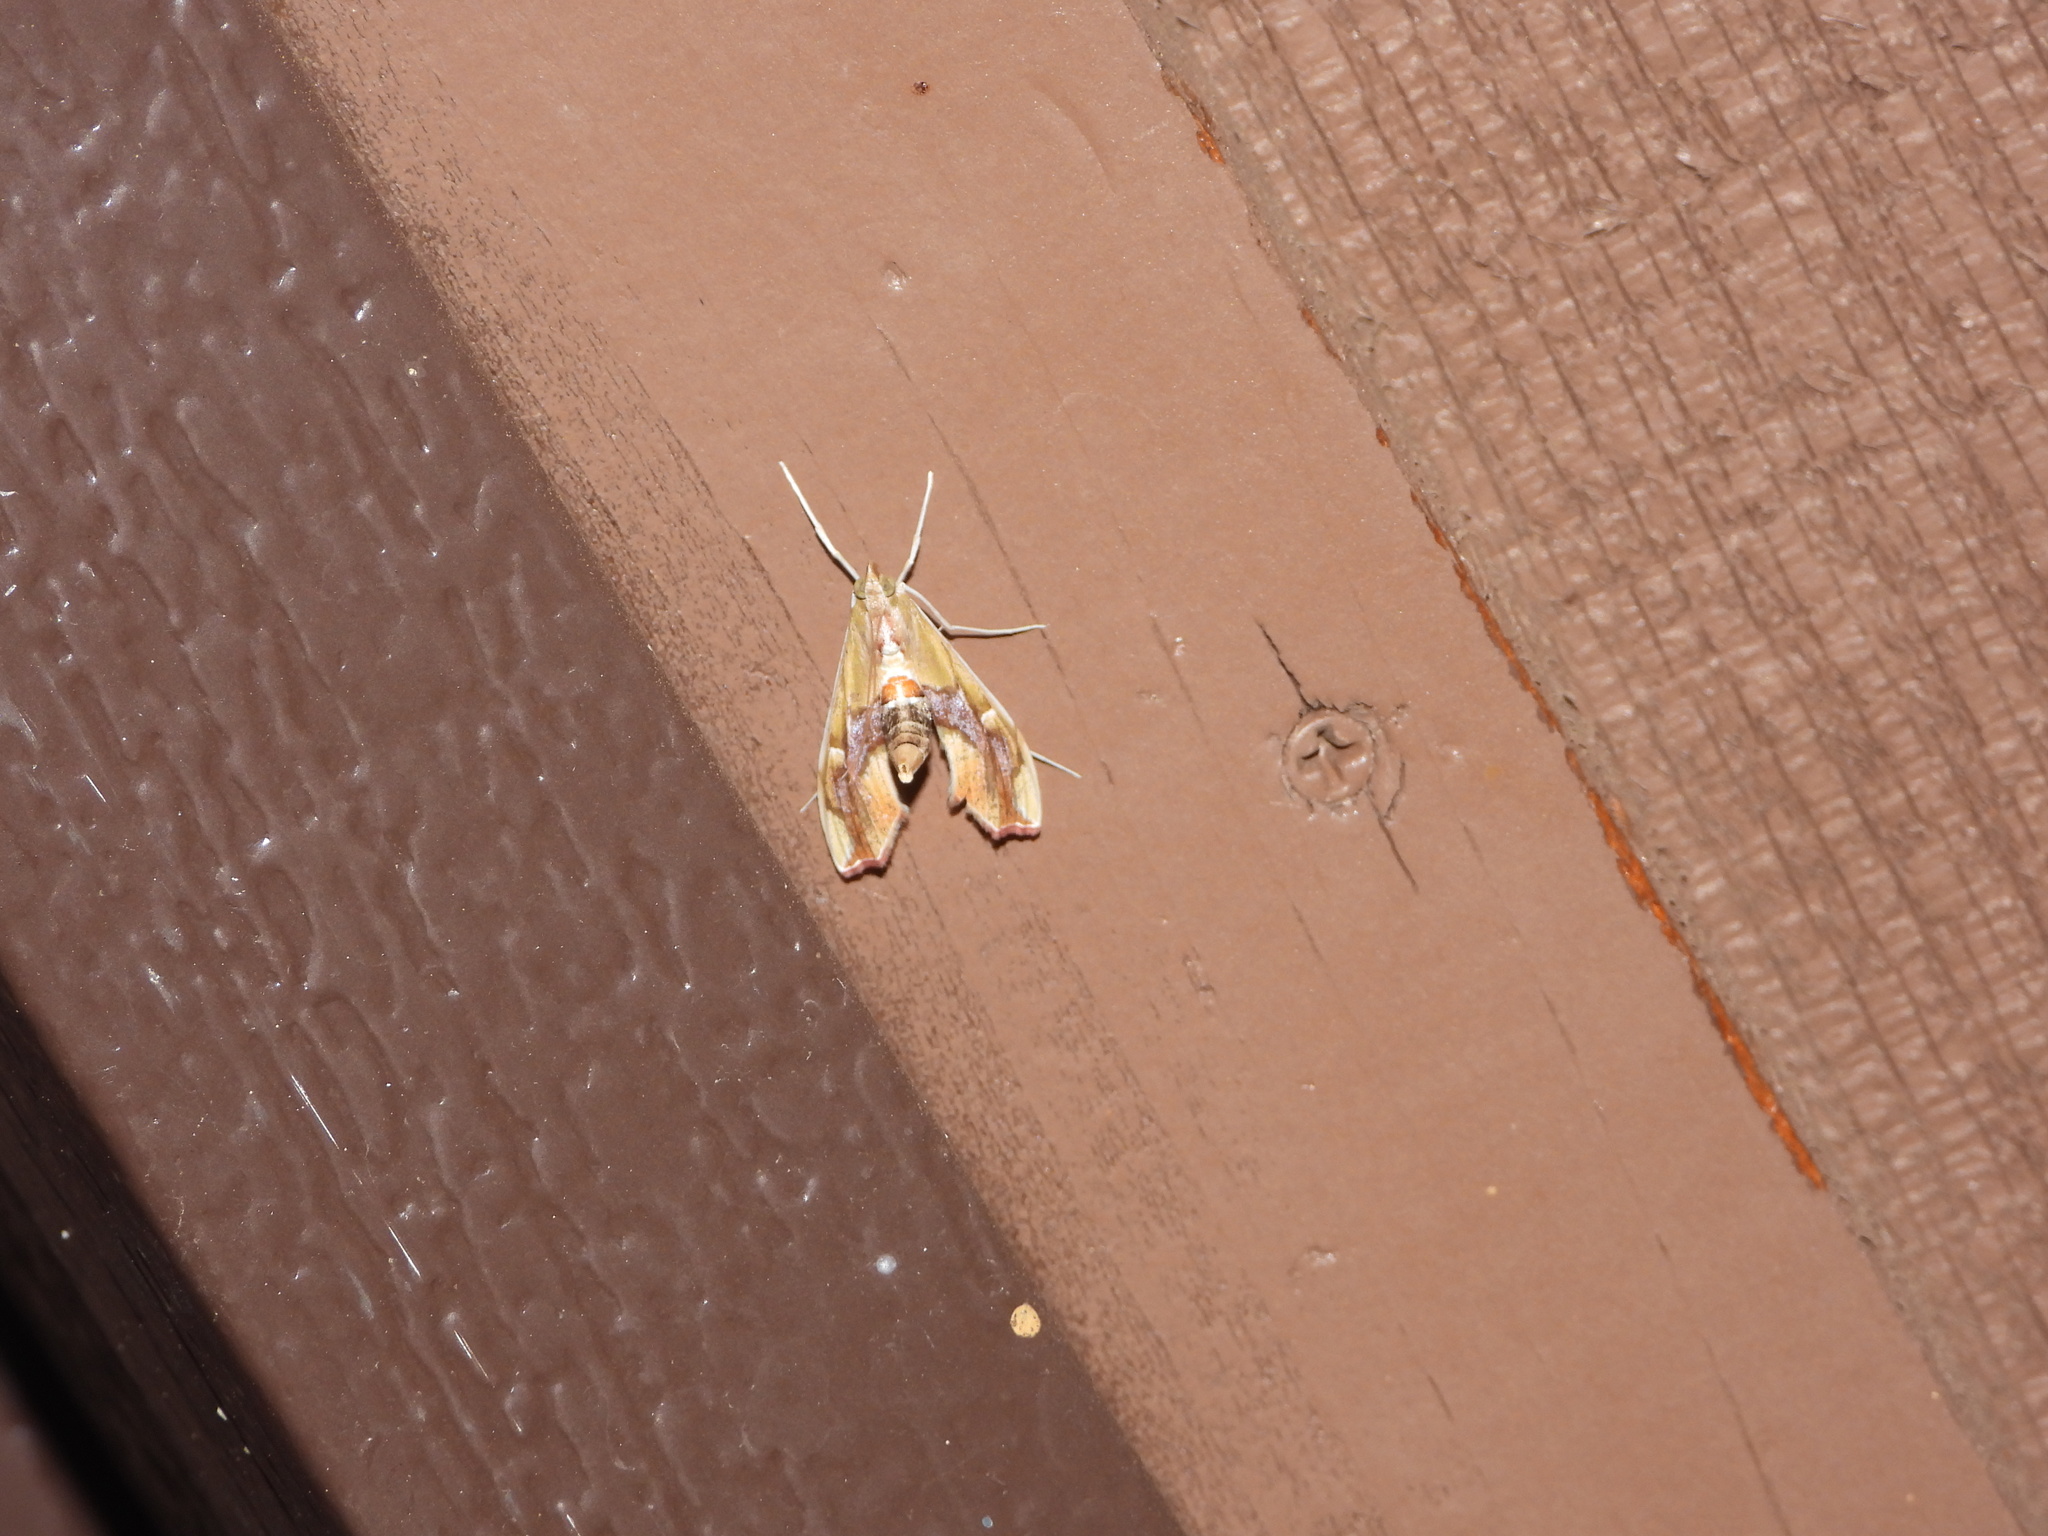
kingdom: Animalia
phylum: Arthropoda
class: Insecta
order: Lepidoptera
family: Crambidae
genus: Agathodes
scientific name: Agathodes monstralis
